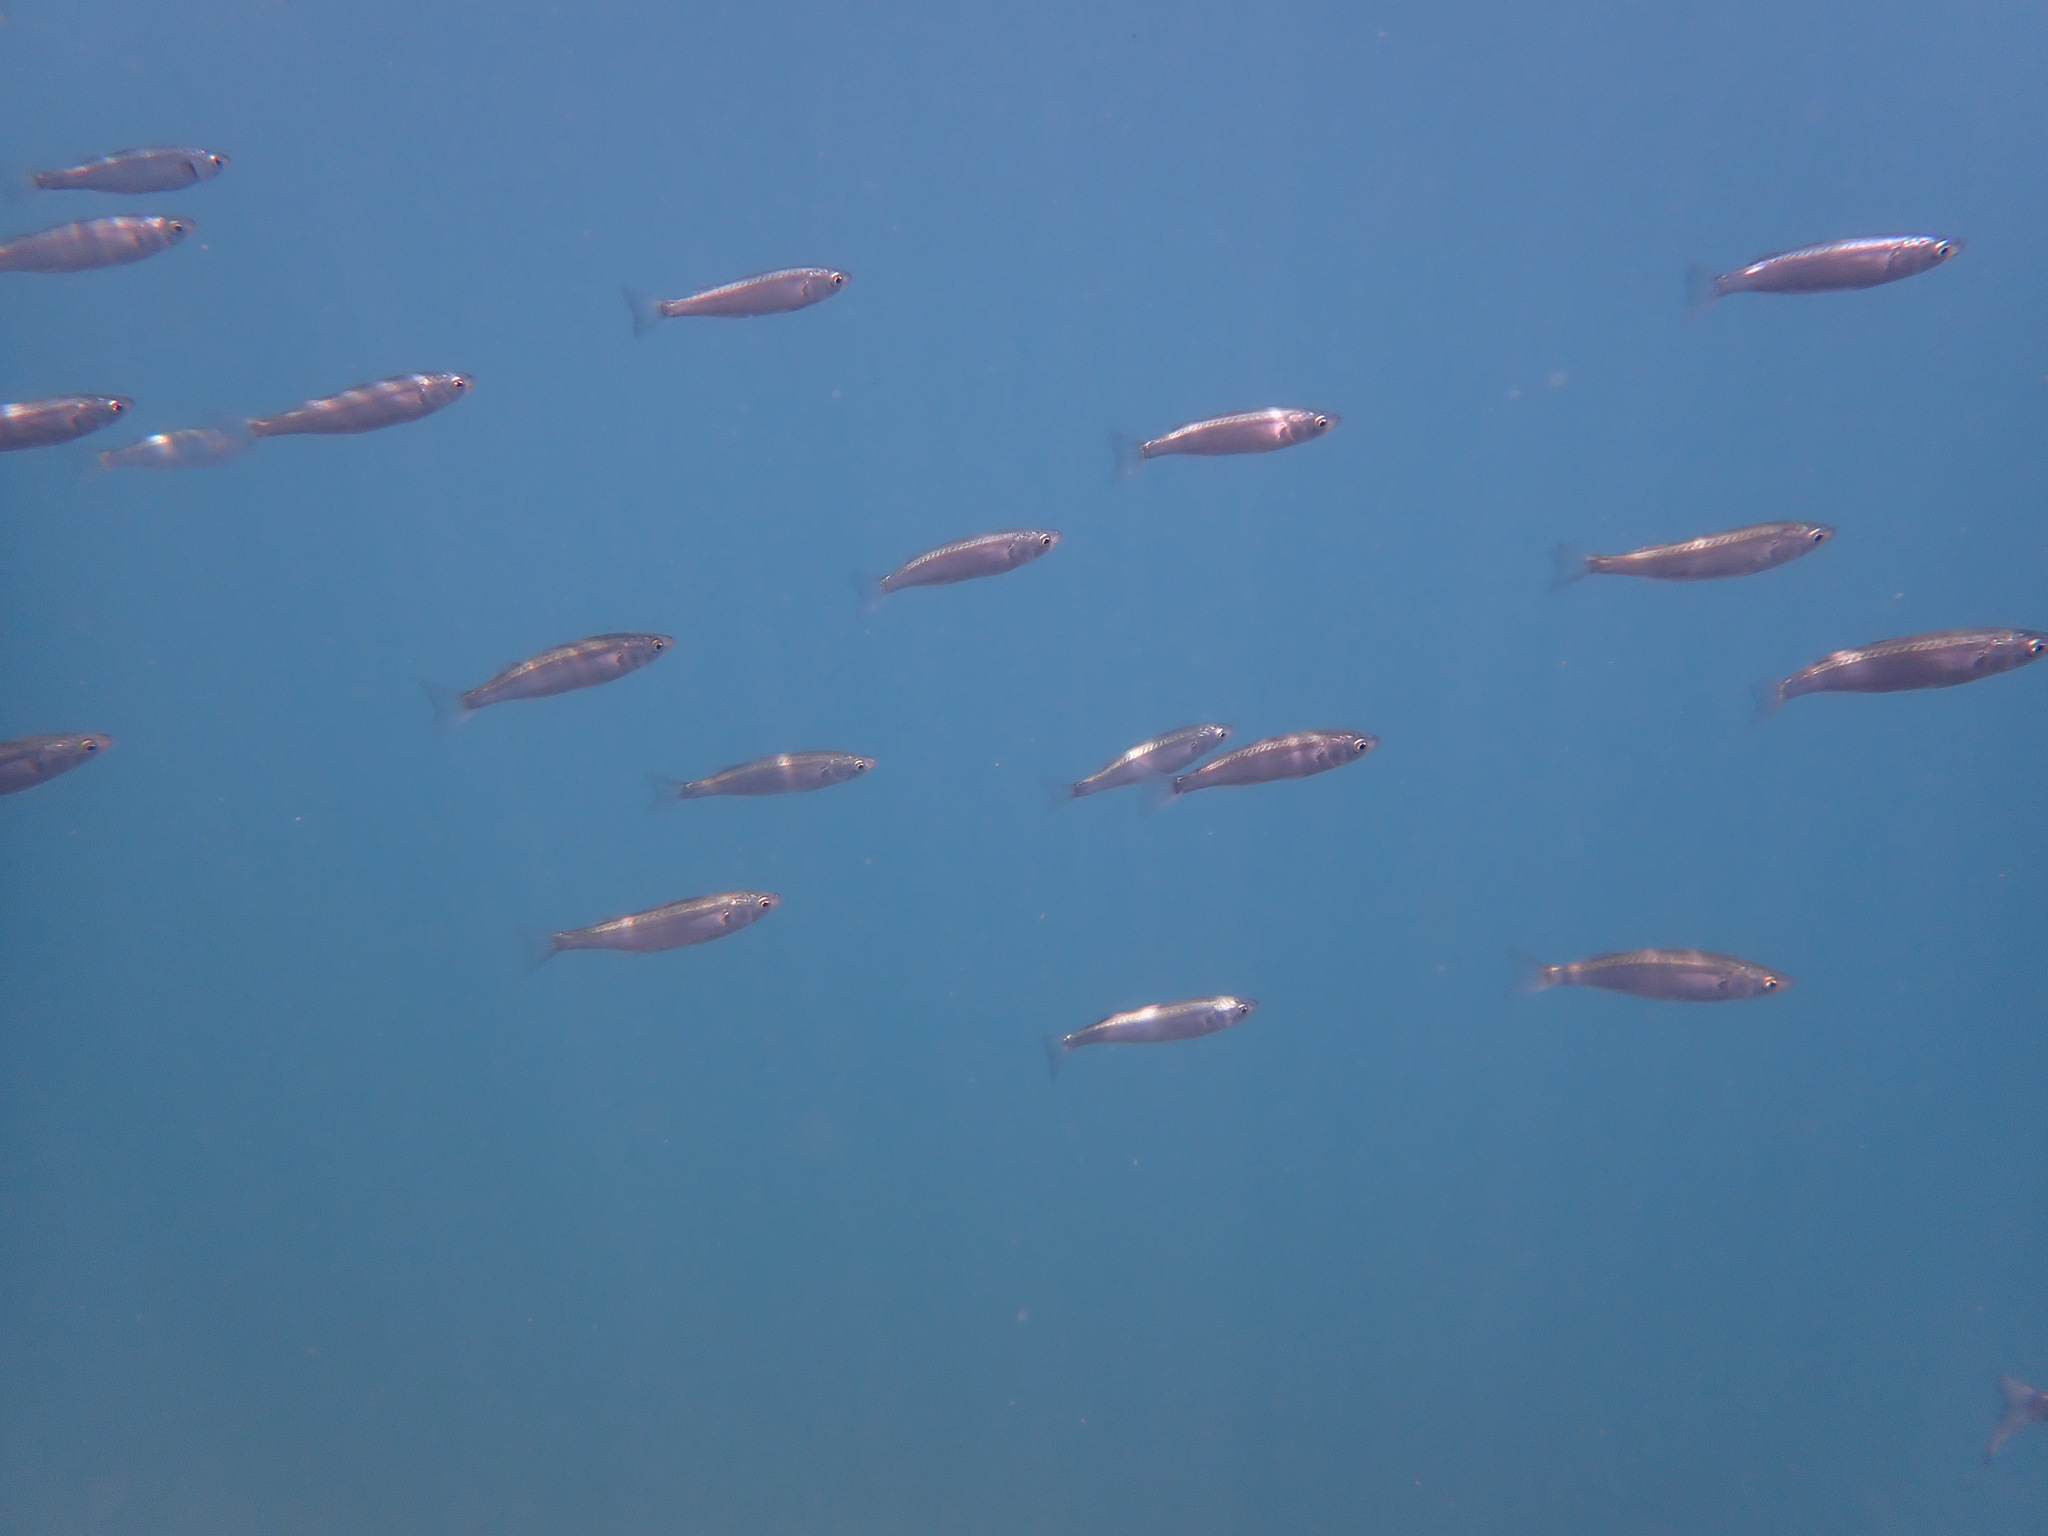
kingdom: Animalia
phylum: Chordata
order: Mugiliformes
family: Mugilidae
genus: Aldrichetta
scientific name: Aldrichetta forsteri
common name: Yellow-eye mullet
